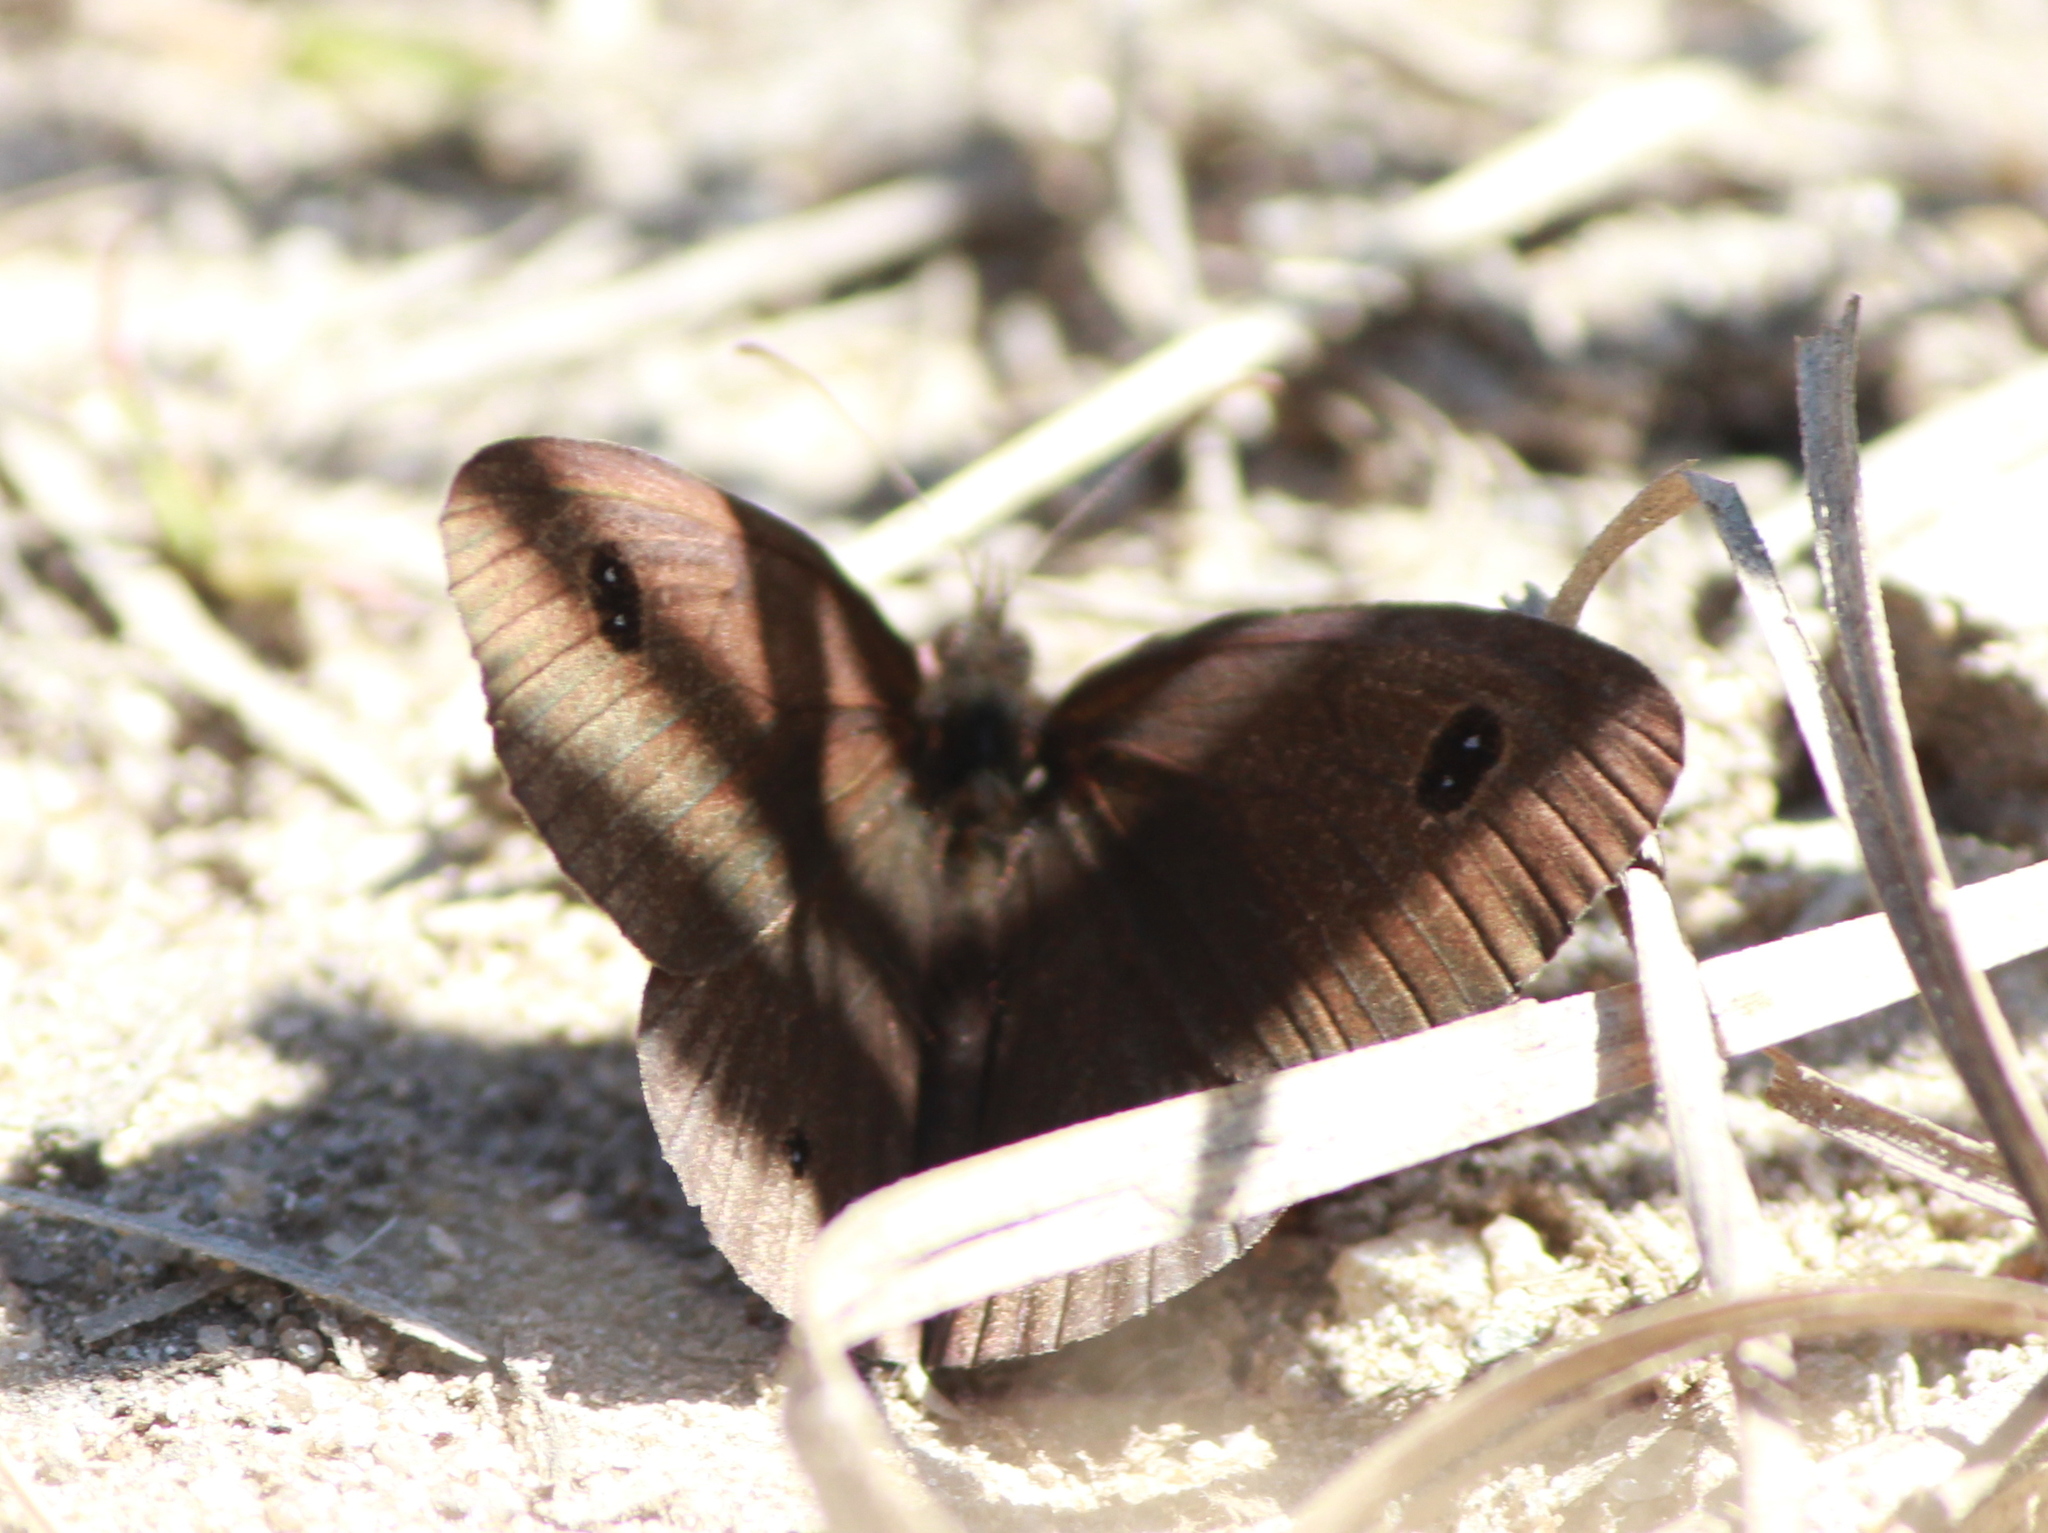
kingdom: Animalia
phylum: Arthropoda
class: Insecta
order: Lepidoptera
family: Nymphalidae
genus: Ypthima
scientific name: Ypthima ypthimoides
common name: Palni four-ring
